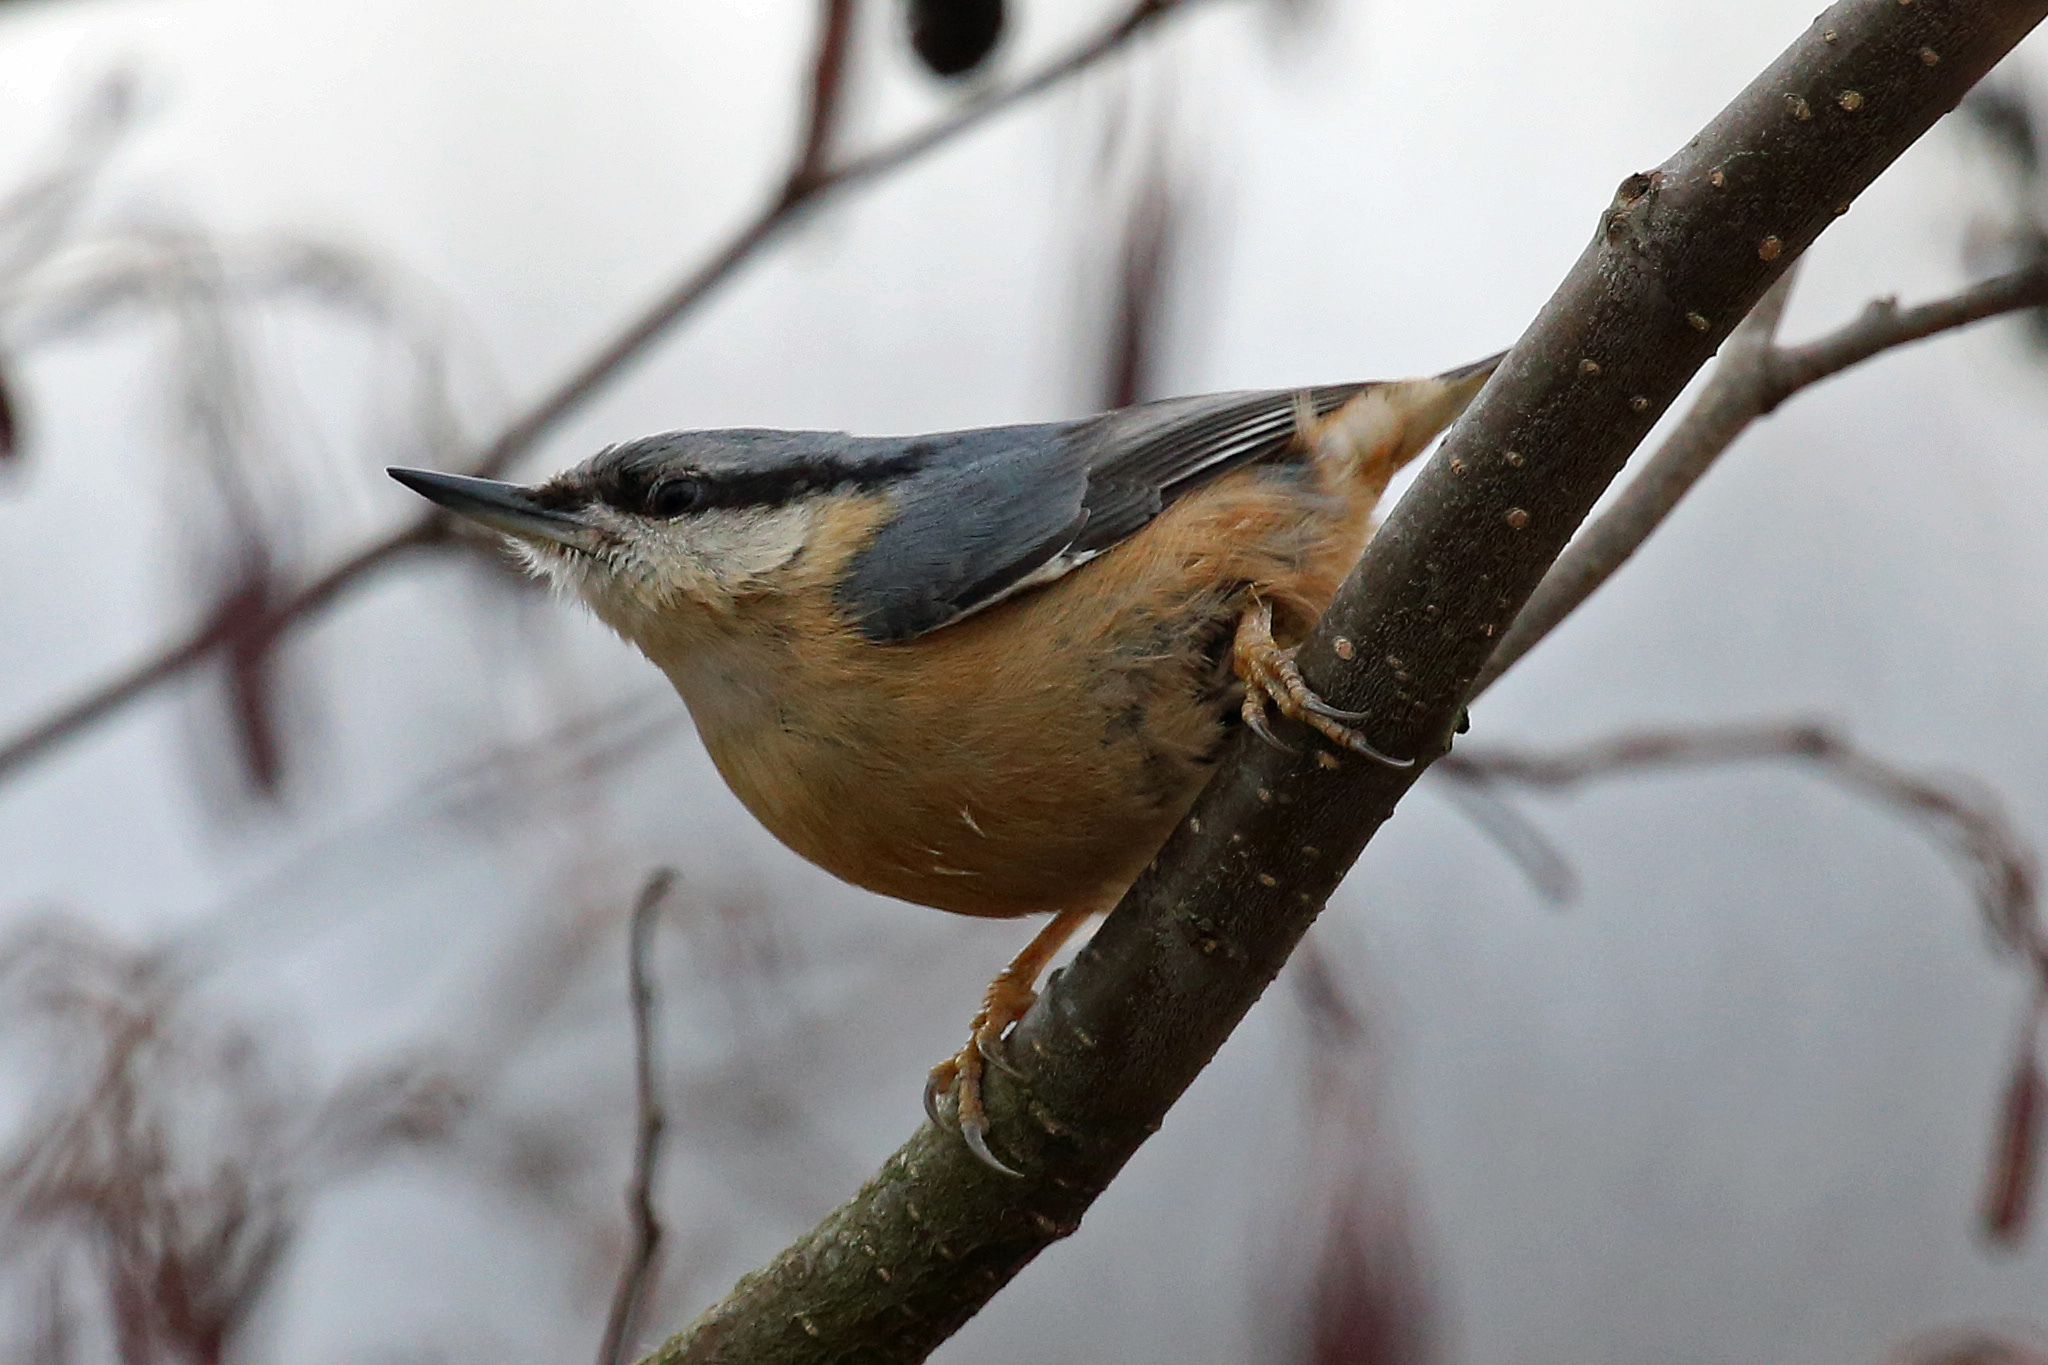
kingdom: Animalia
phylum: Chordata
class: Aves
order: Passeriformes
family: Sittidae
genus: Sitta
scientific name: Sitta europaea
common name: Eurasian nuthatch
